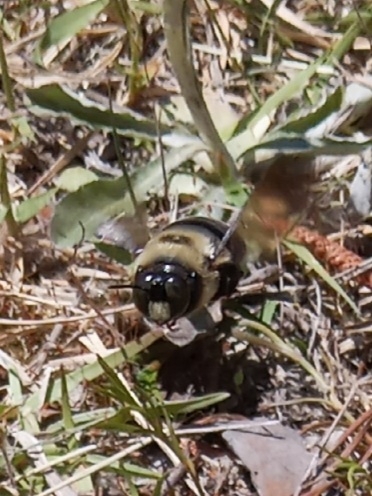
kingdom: Animalia
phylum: Arthropoda
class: Insecta
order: Hymenoptera
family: Apidae
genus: Xylocopa
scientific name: Xylocopa virginica
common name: Carpenter bee
